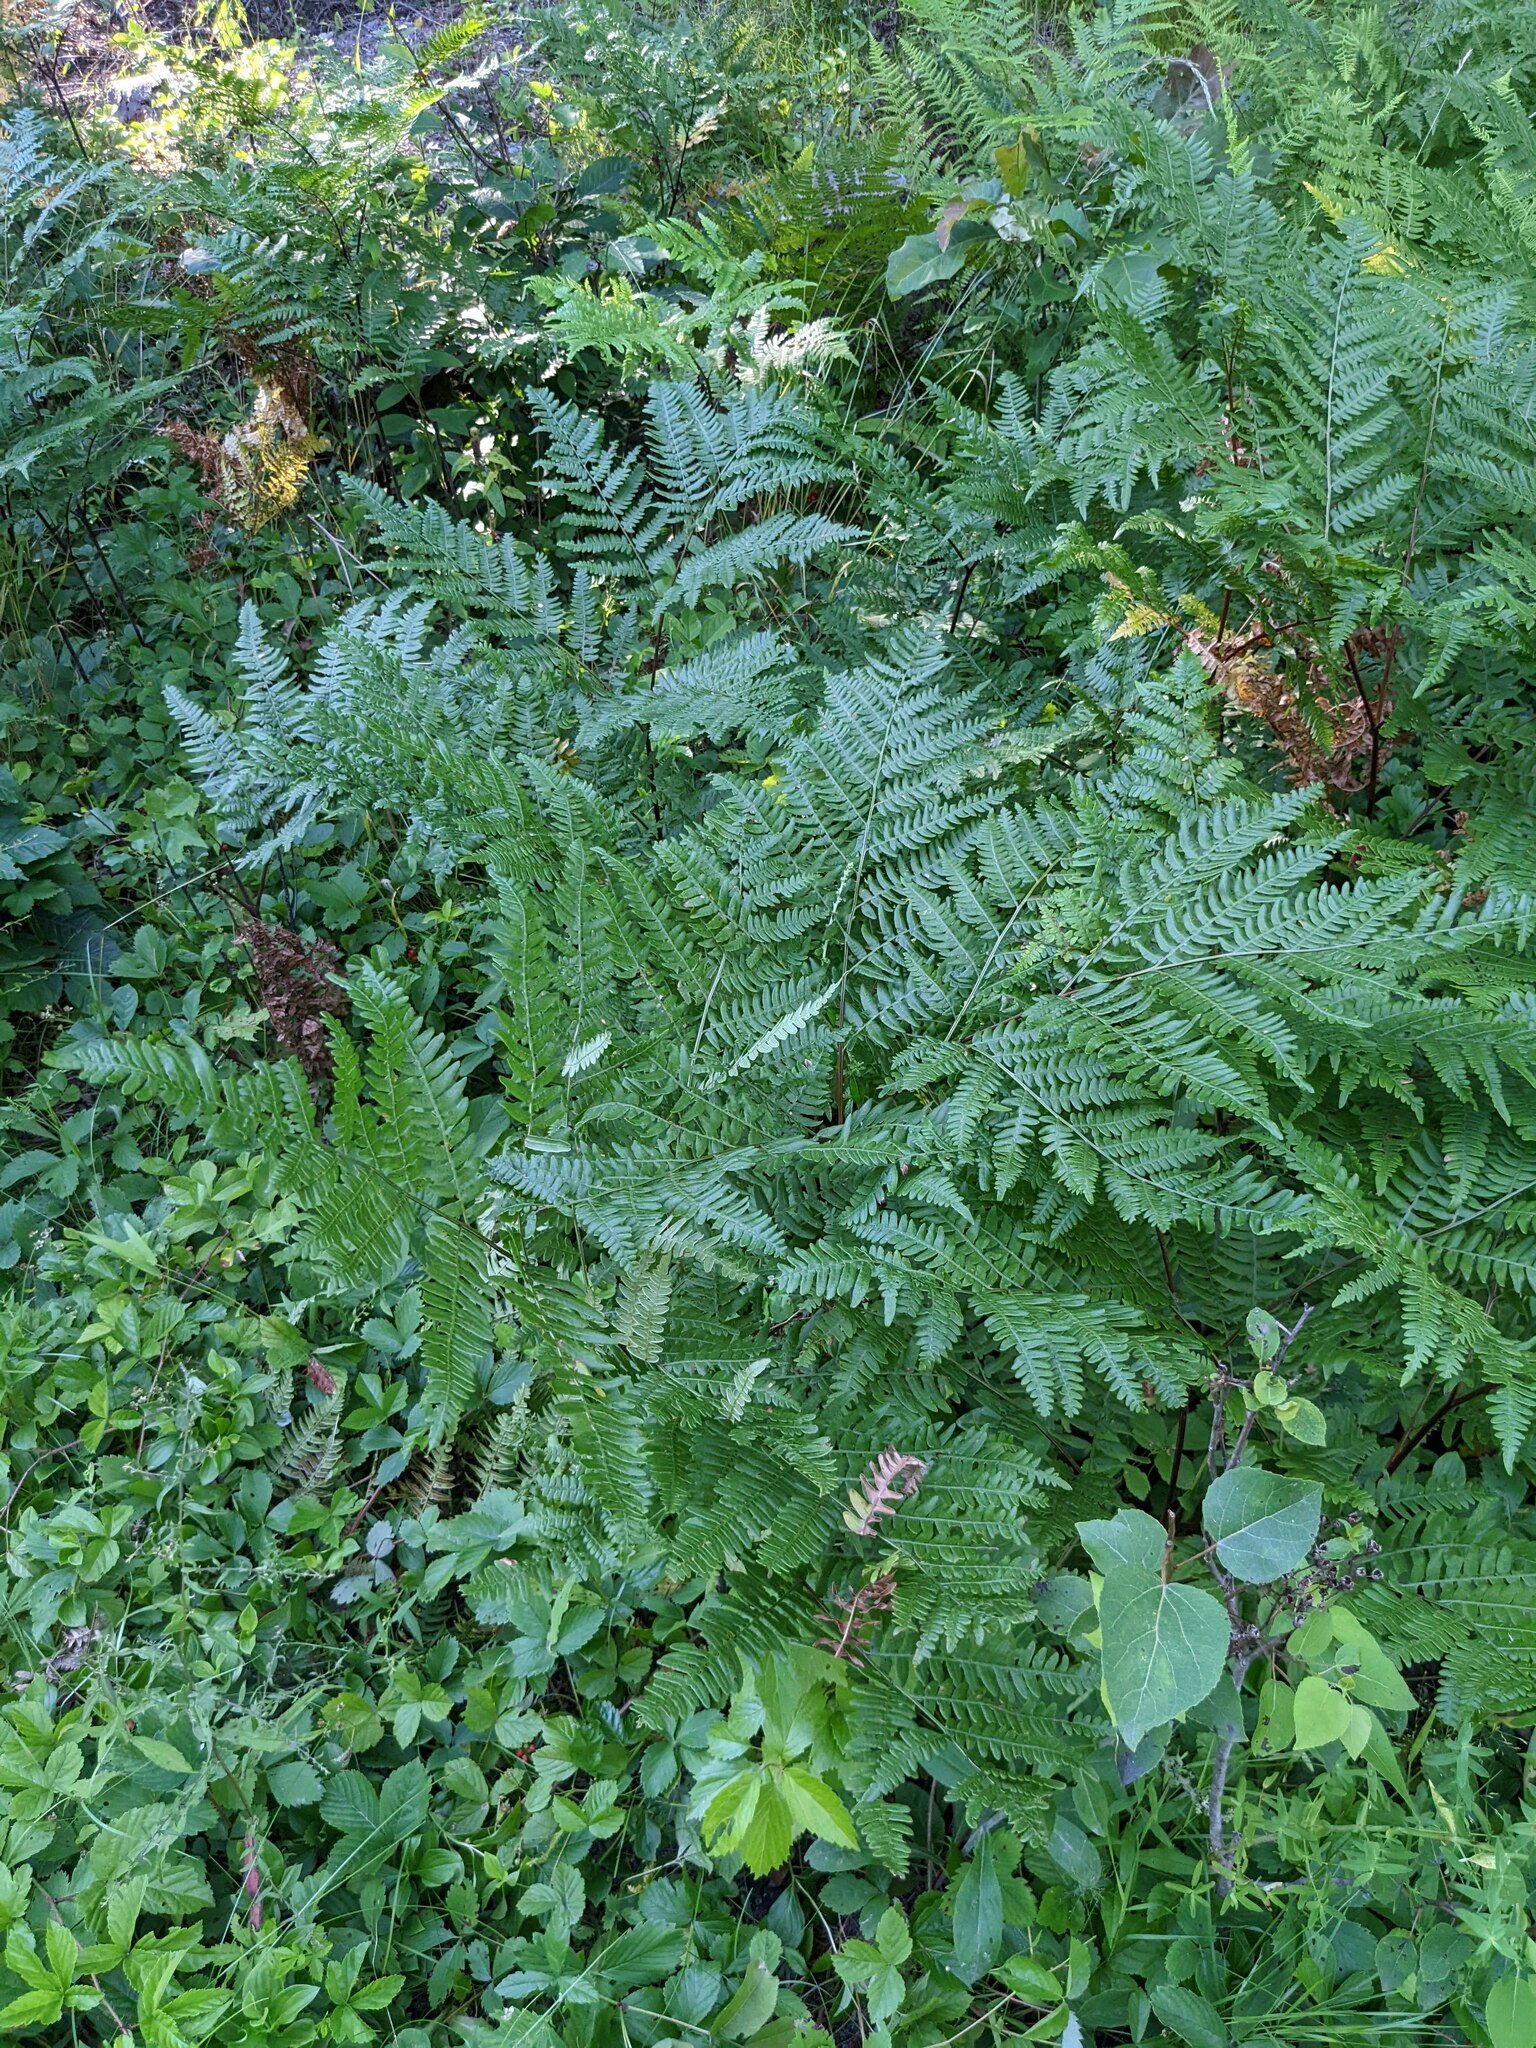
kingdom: Plantae
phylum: Tracheophyta
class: Polypodiopsida
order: Polypodiales
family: Dennstaedtiaceae
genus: Pteridium
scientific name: Pteridium aquilinum
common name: Bracken
